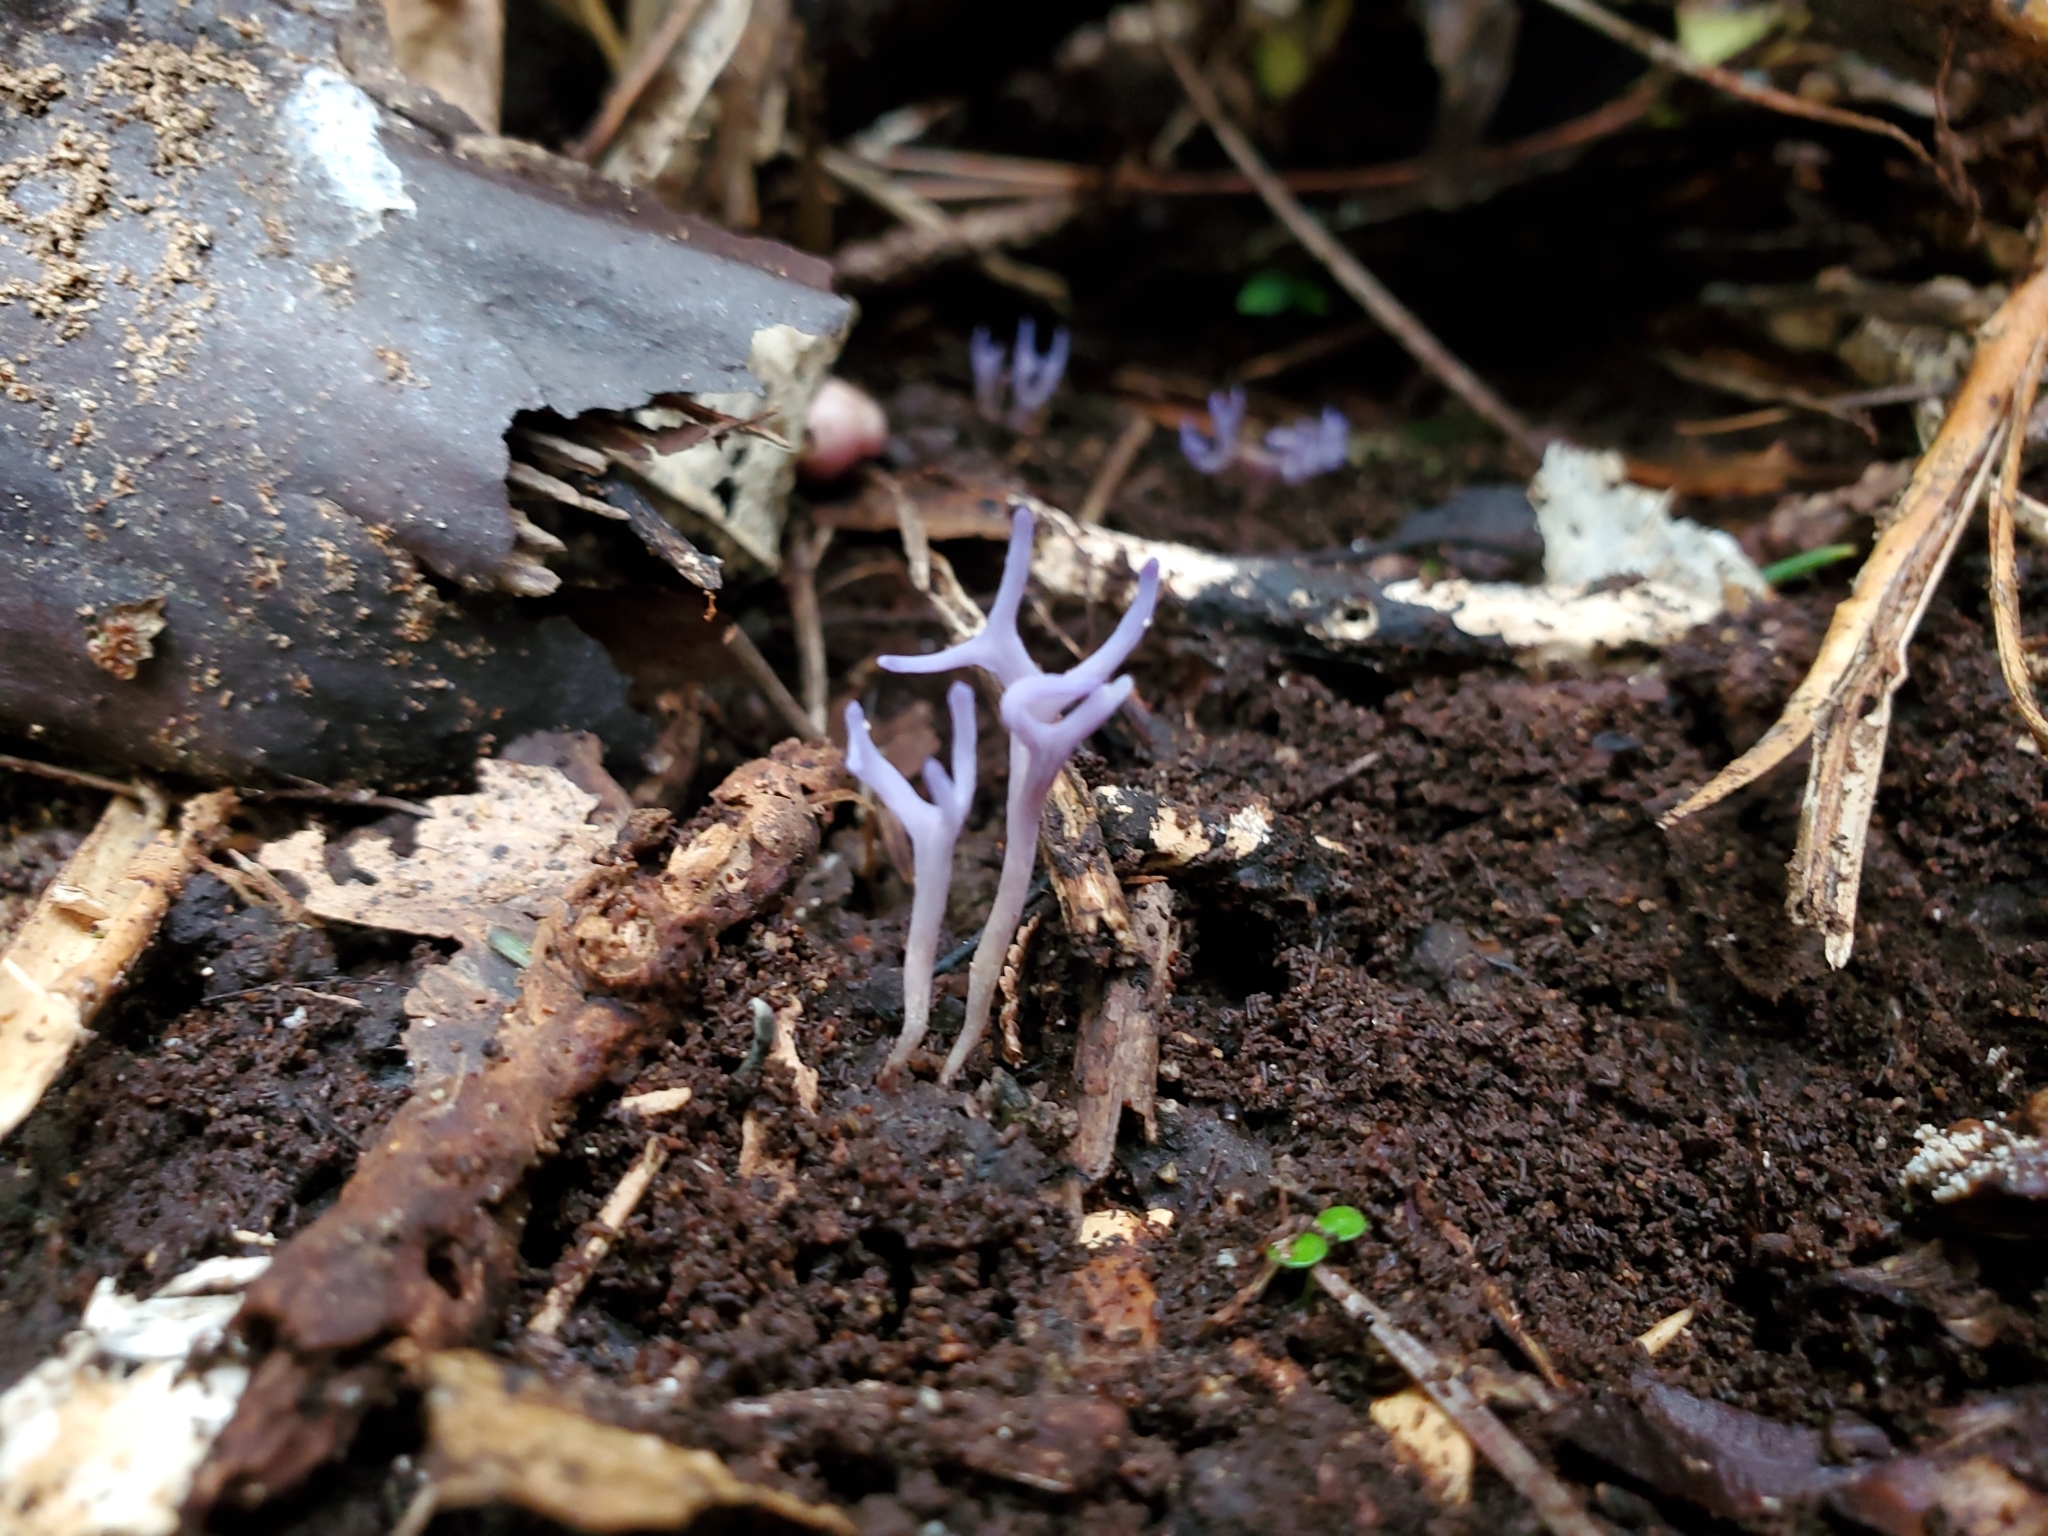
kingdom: Fungi
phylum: Basidiomycota
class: Agaricomycetes
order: Agaricales
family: Clavariaceae
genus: Ramariopsis
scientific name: Ramariopsis pulchella
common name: Lilac coral
